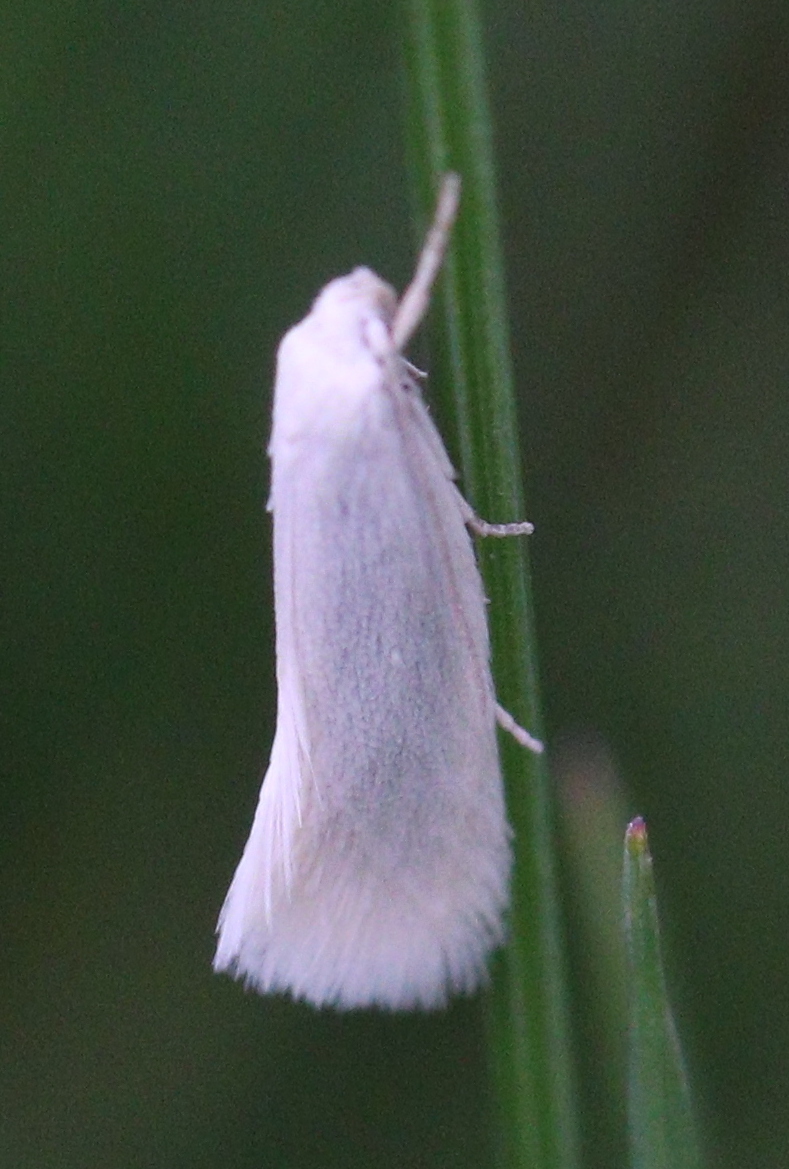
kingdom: Animalia
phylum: Arthropoda
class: Insecta
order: Lepidoptera
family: Elachistidae
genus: Elachista
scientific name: Elachista argentella
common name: Swan-feather dwarf
